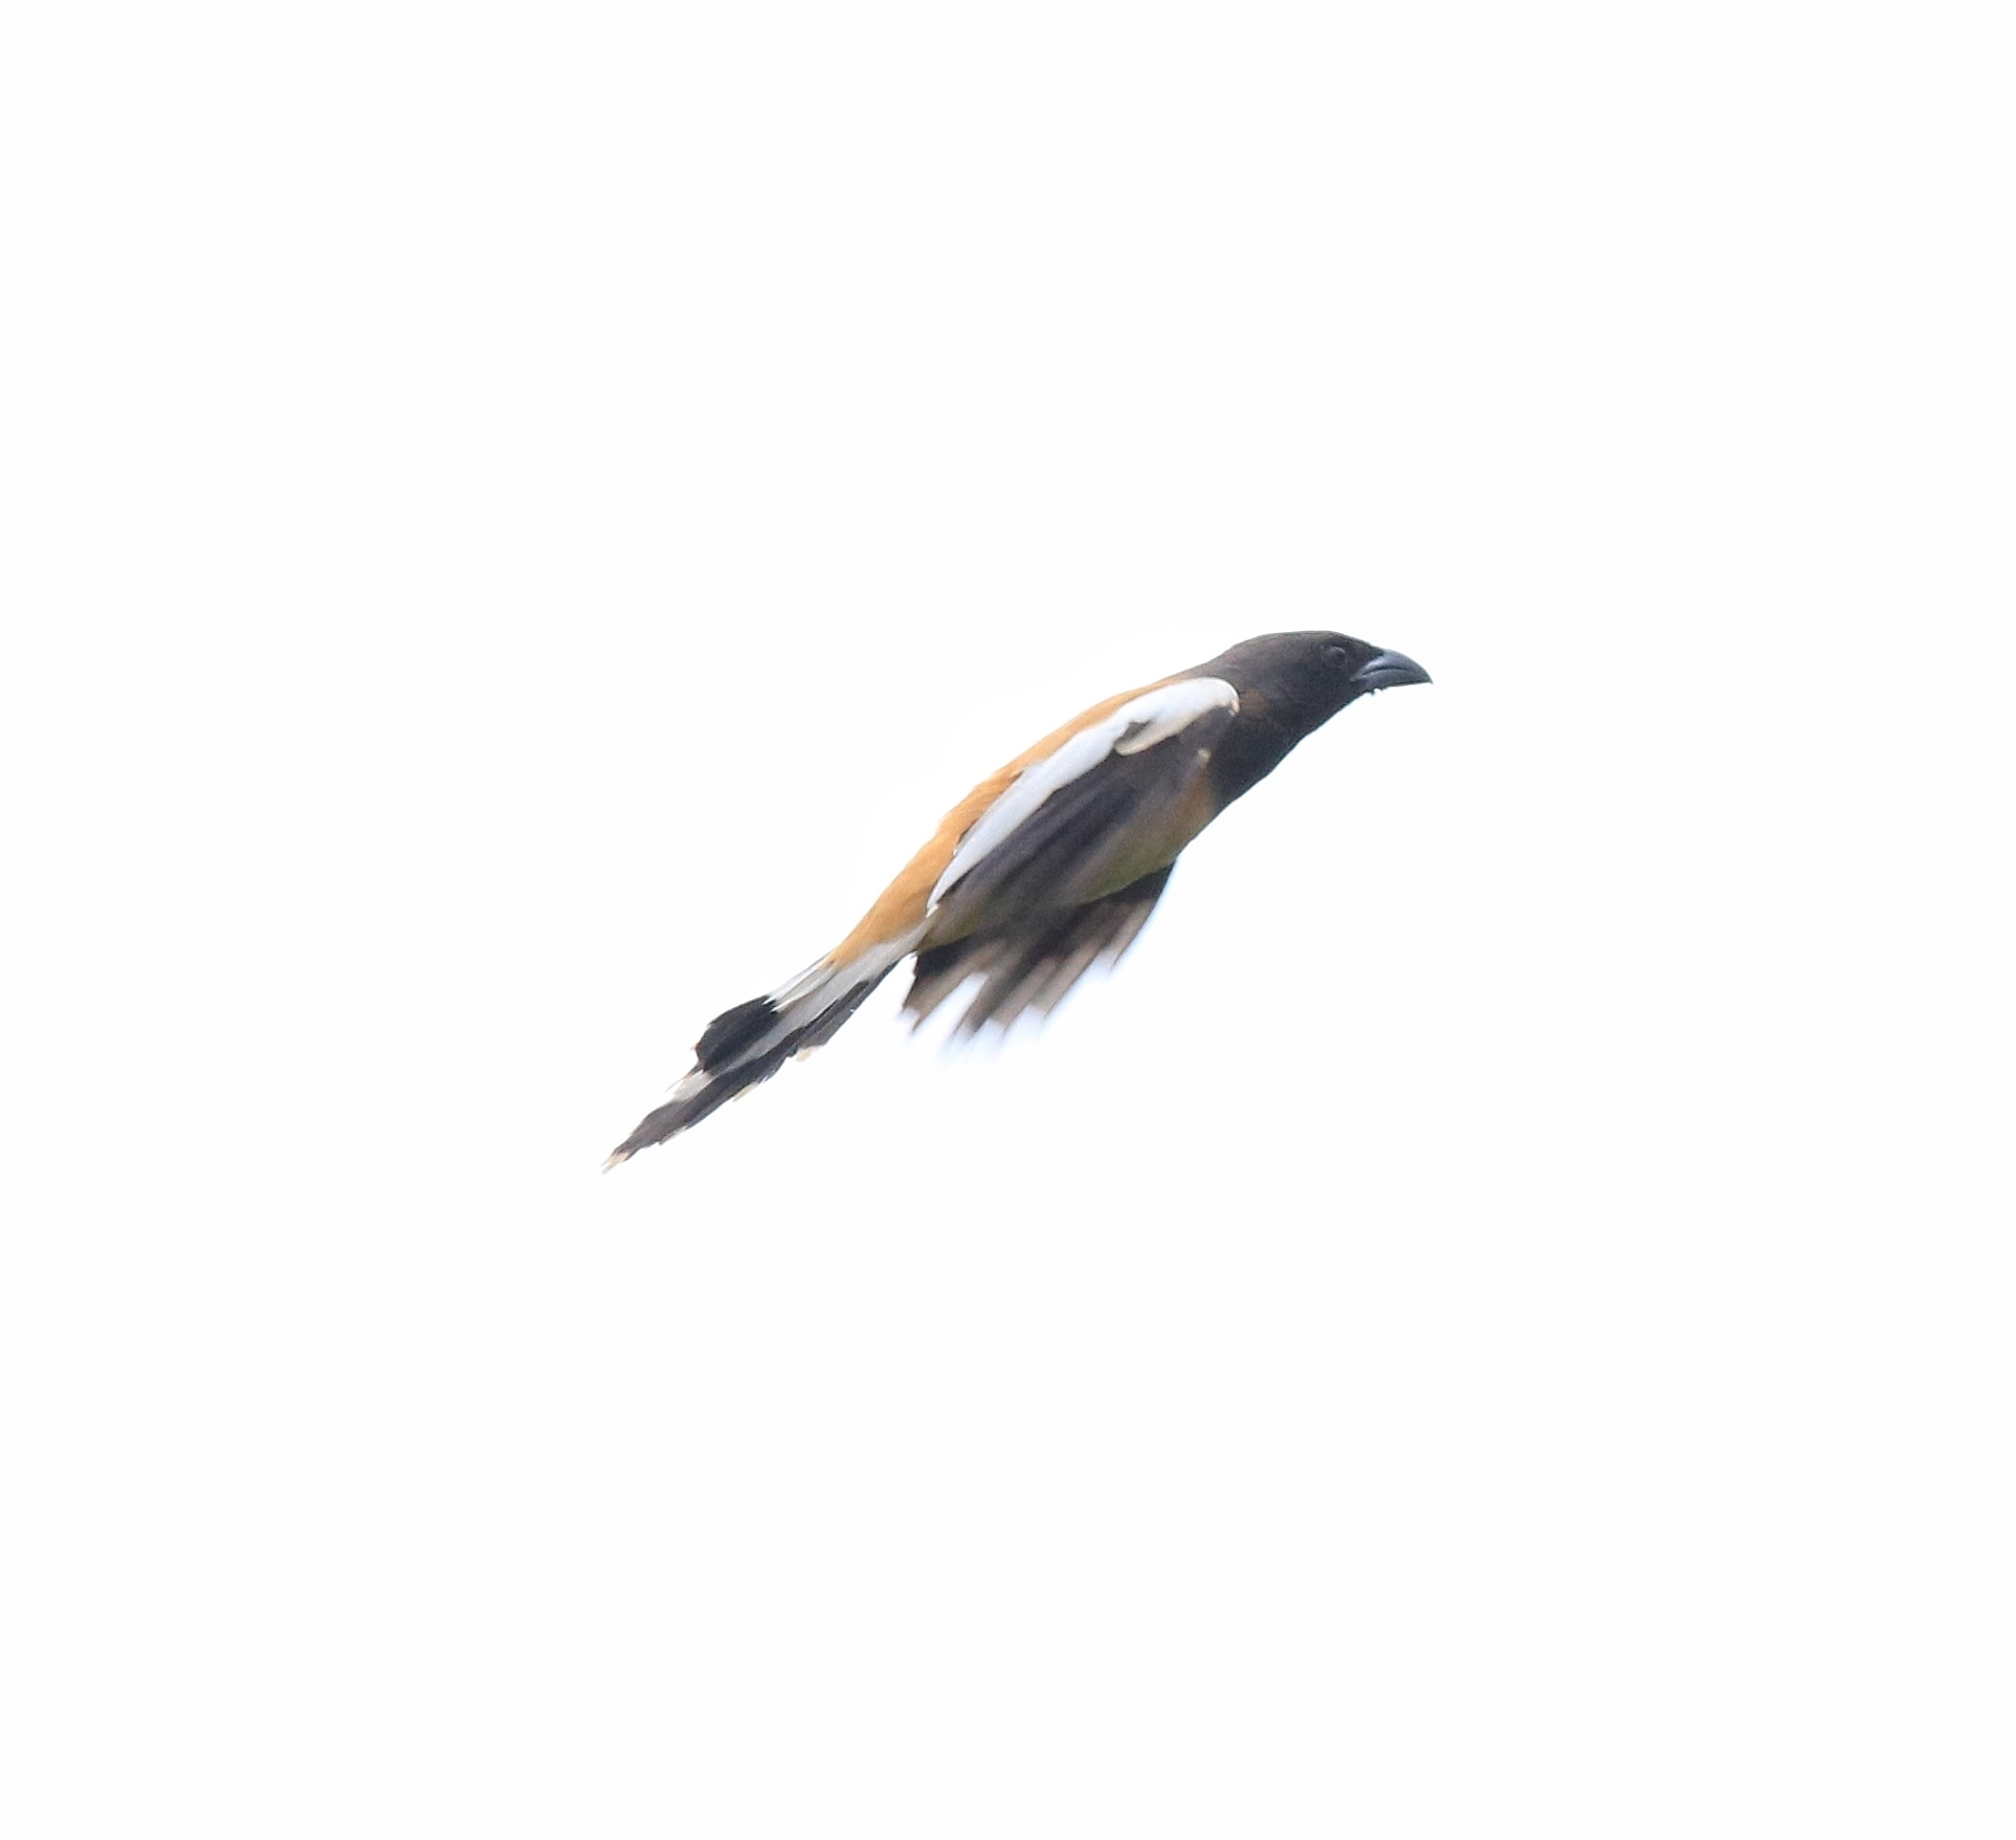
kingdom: Animalia
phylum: Chordata
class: Aves
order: Passeriformes
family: Corvidae
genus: Dendrocitta
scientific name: Dendrocitta vagabunda
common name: Rufous treepie
